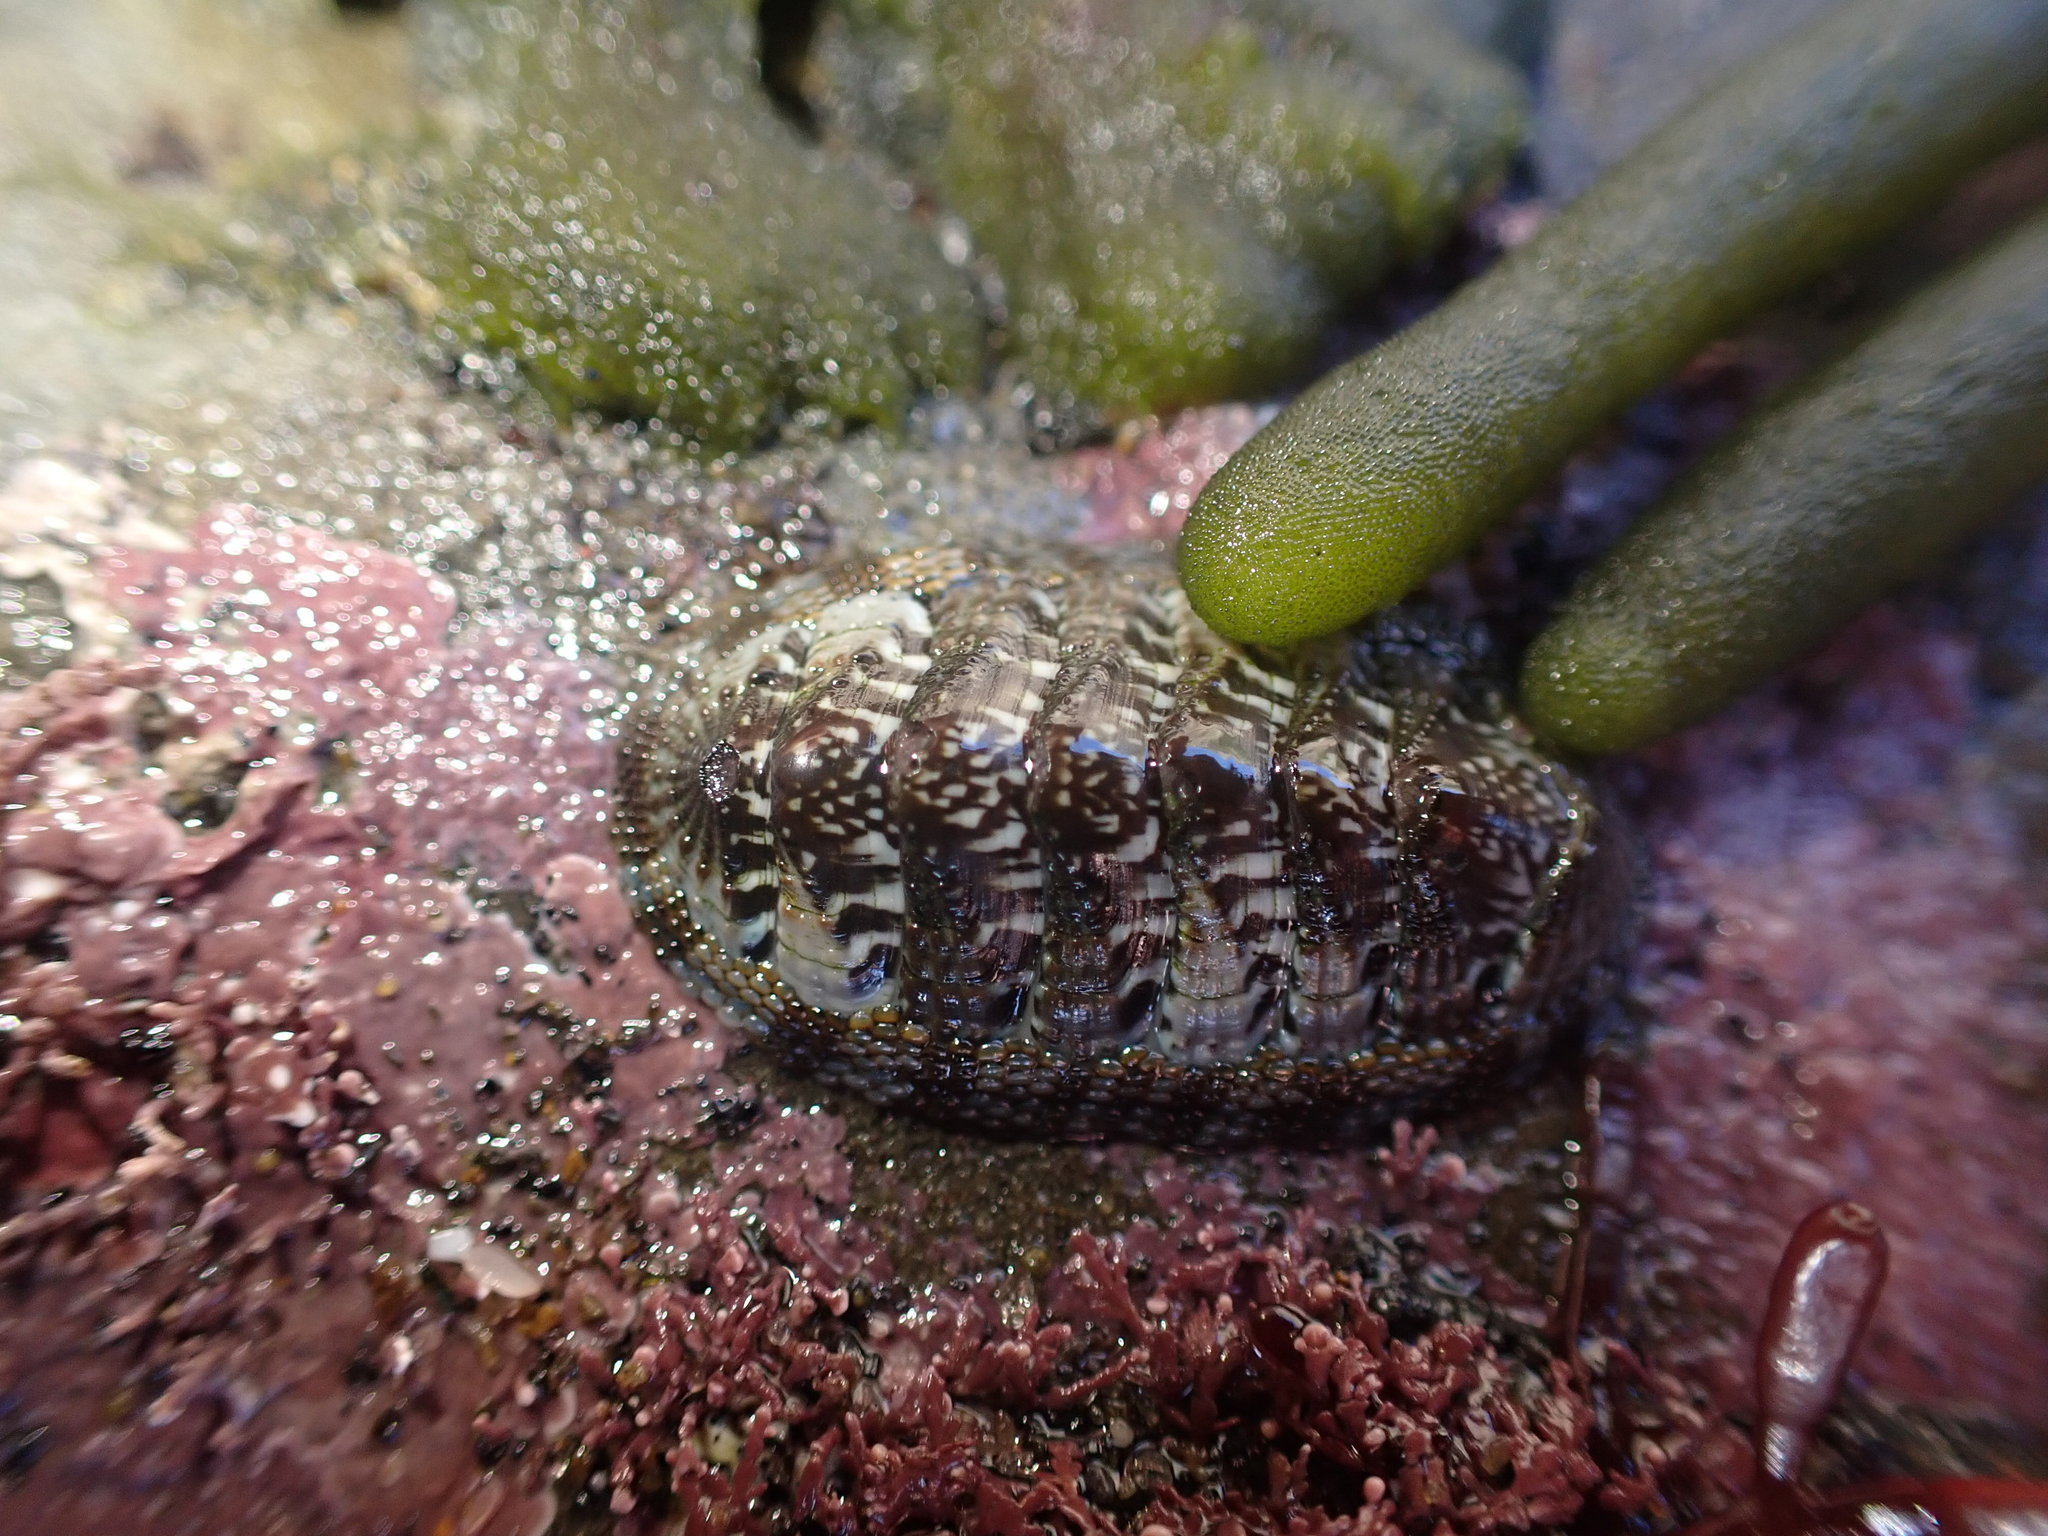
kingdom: Animalia
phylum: Mollusca
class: Polyplacophora
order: Chitonida
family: Chitonidae
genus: Sypharochiton
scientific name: Sypharochiton sinclairi
